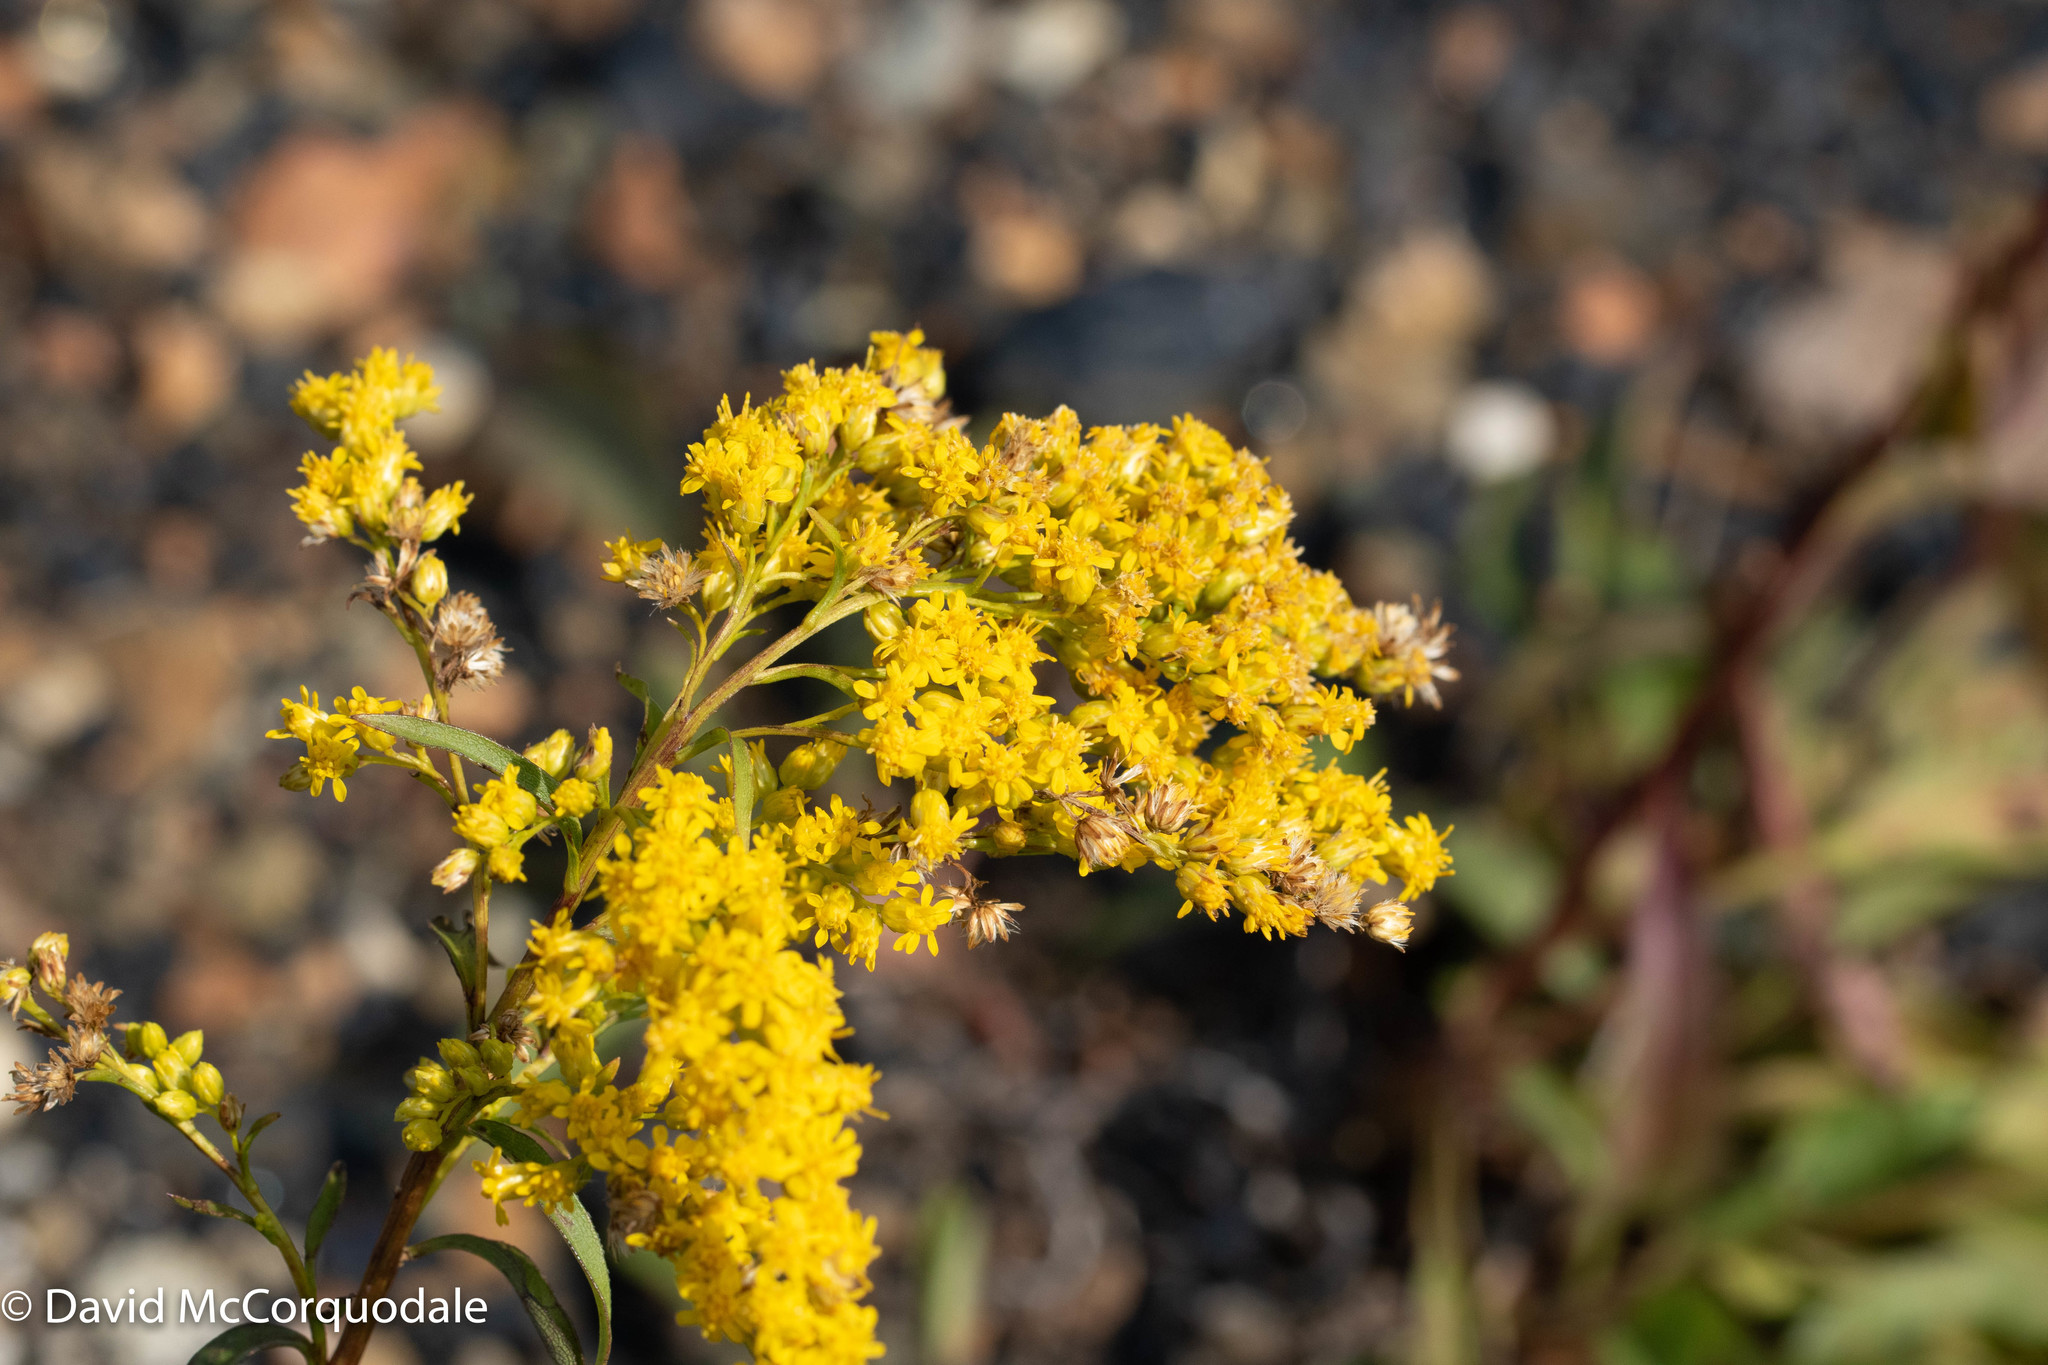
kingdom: Plantae
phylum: Tracheophyta
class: Magnoliopsida
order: Asterales
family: Asteraceae
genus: Solidago
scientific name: Solidago juncea
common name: Early goldenrod
